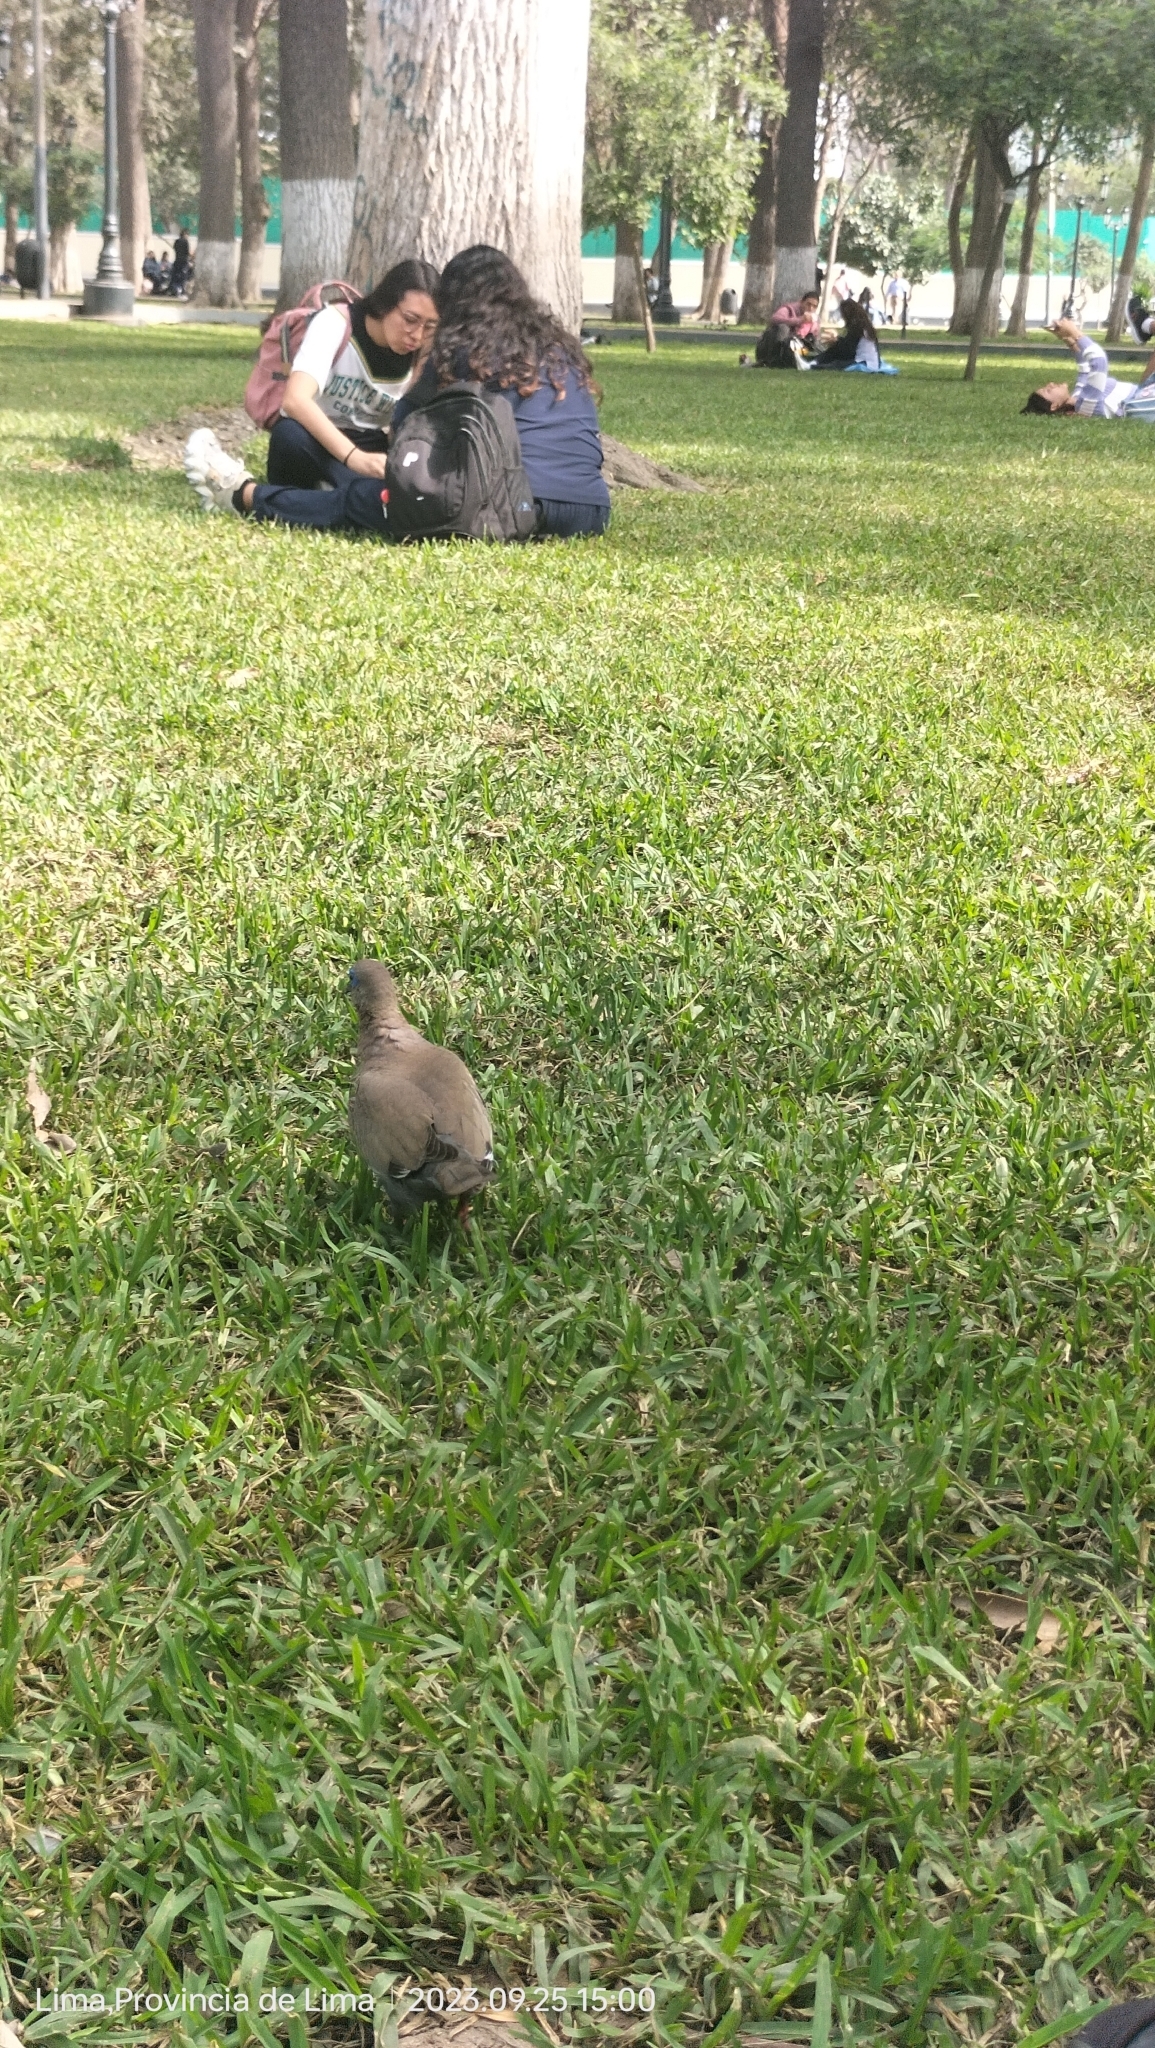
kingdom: Animalia
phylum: Chordata
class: Aves
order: Columbiformes
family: Columbidae
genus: Zenaida
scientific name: Zenaida meloda
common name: West peruvian dove
